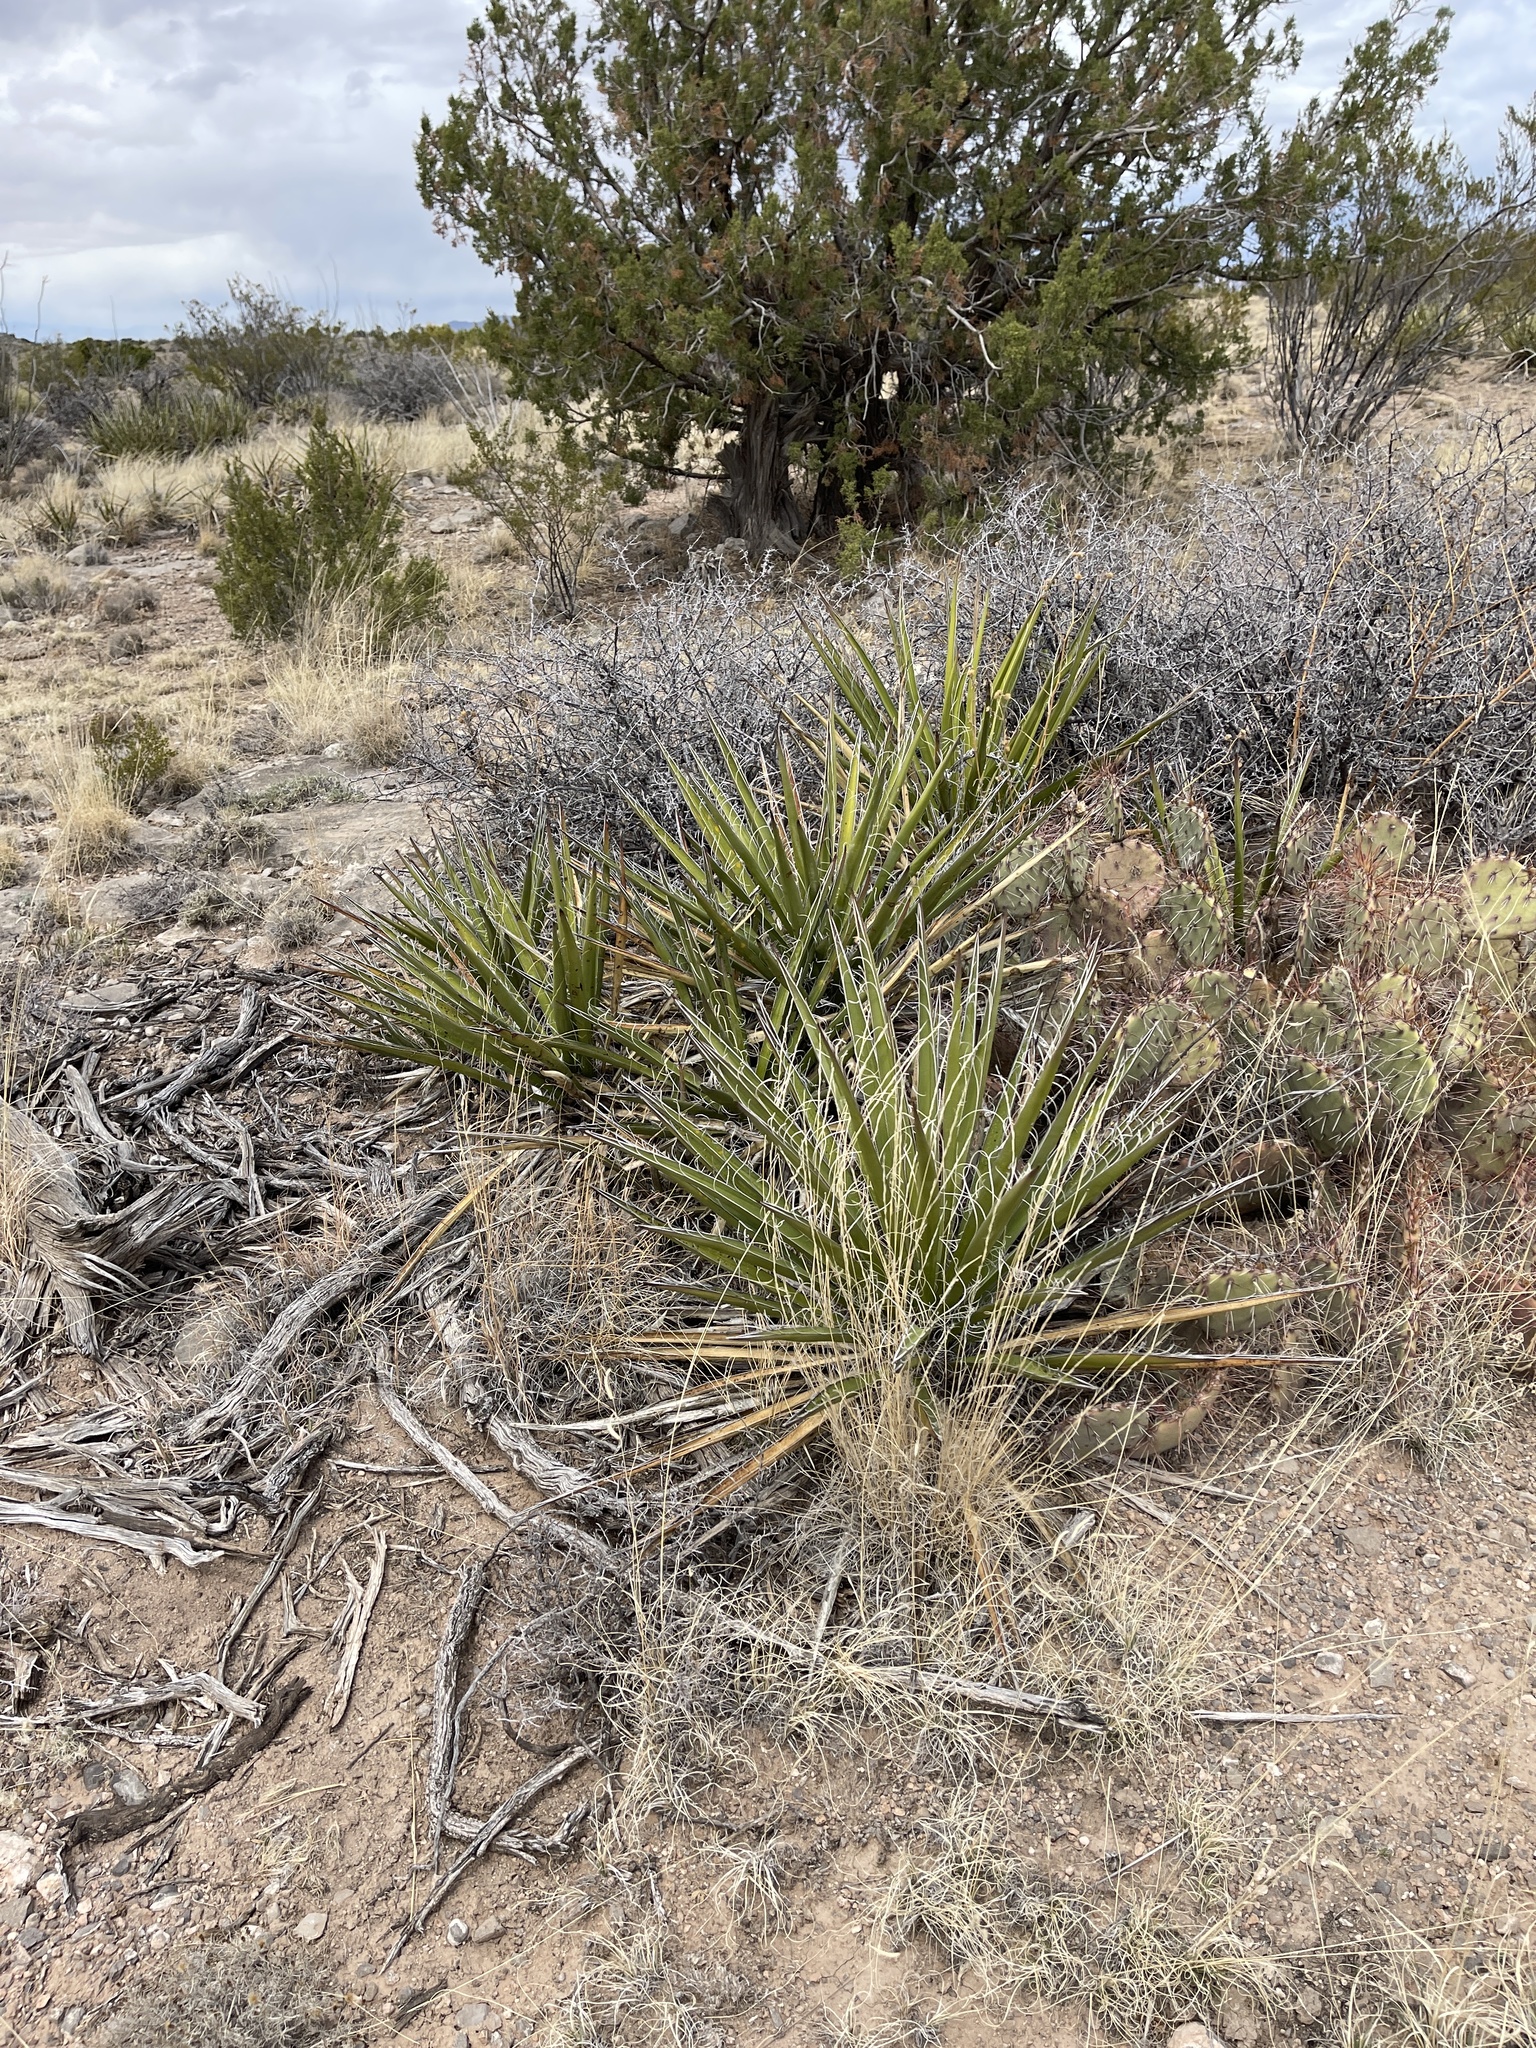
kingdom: Plantae
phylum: Tracheophyta
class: Liliopsida
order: Asparagales
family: Asparagaceae
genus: Yucca
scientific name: Yucca baccata
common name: Banana yucca
